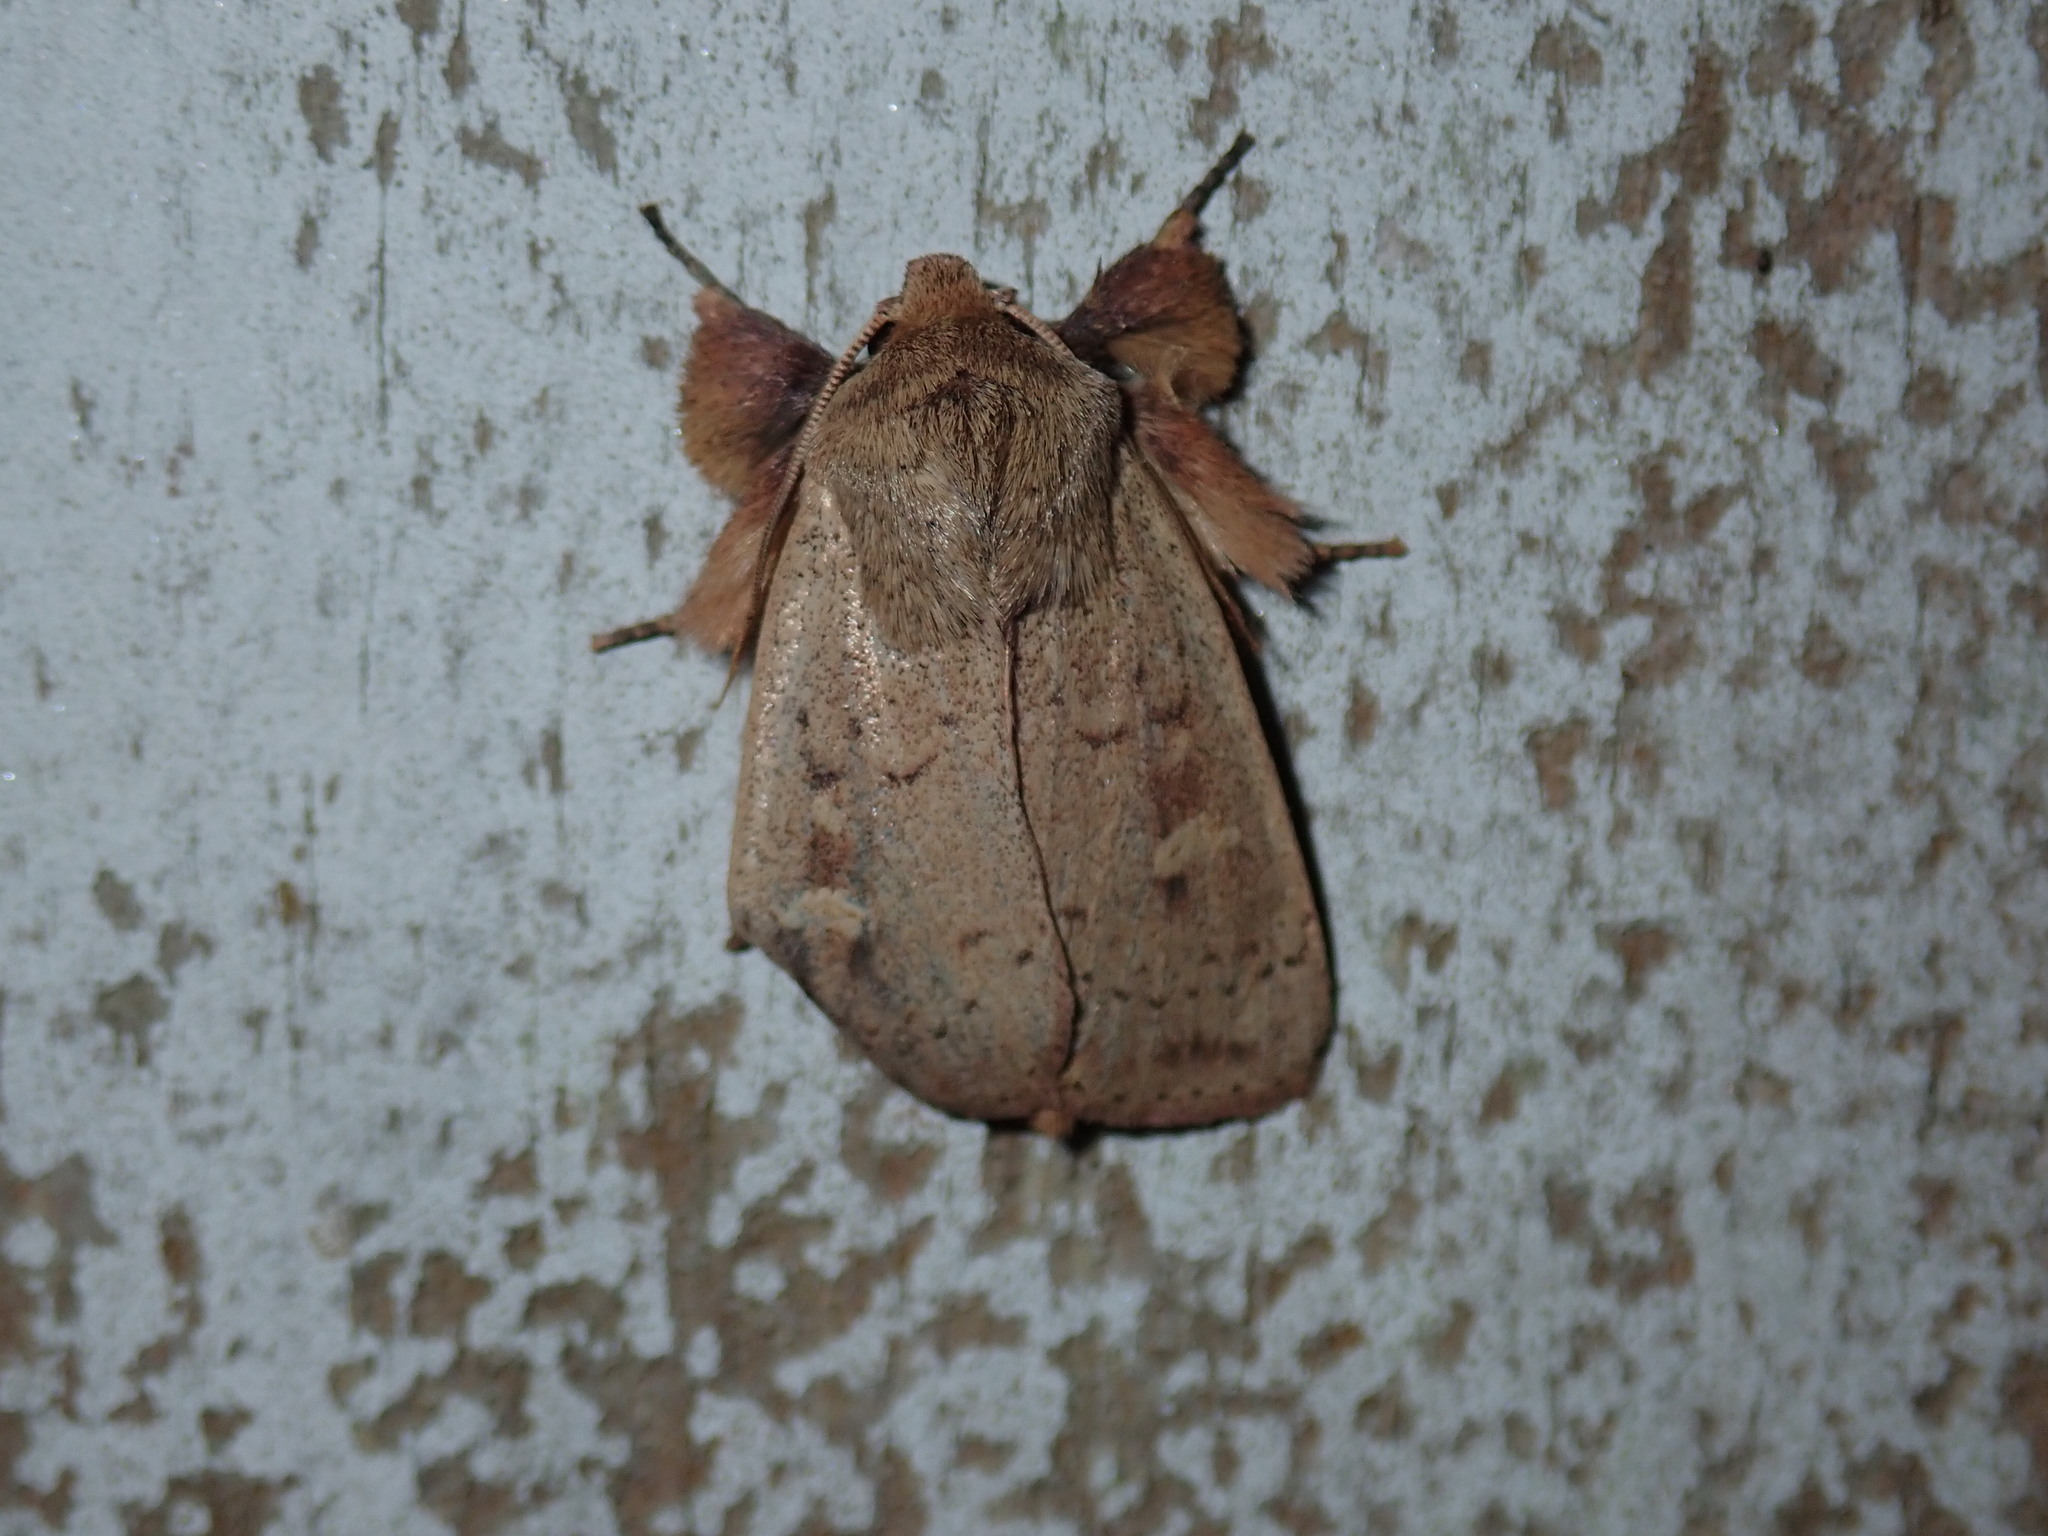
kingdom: Animalia
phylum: Arthropoda
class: Insecta
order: Lepidoptera
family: Noctuidae
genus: Leucania
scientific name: Leucania pseudargyria
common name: False wainscot
